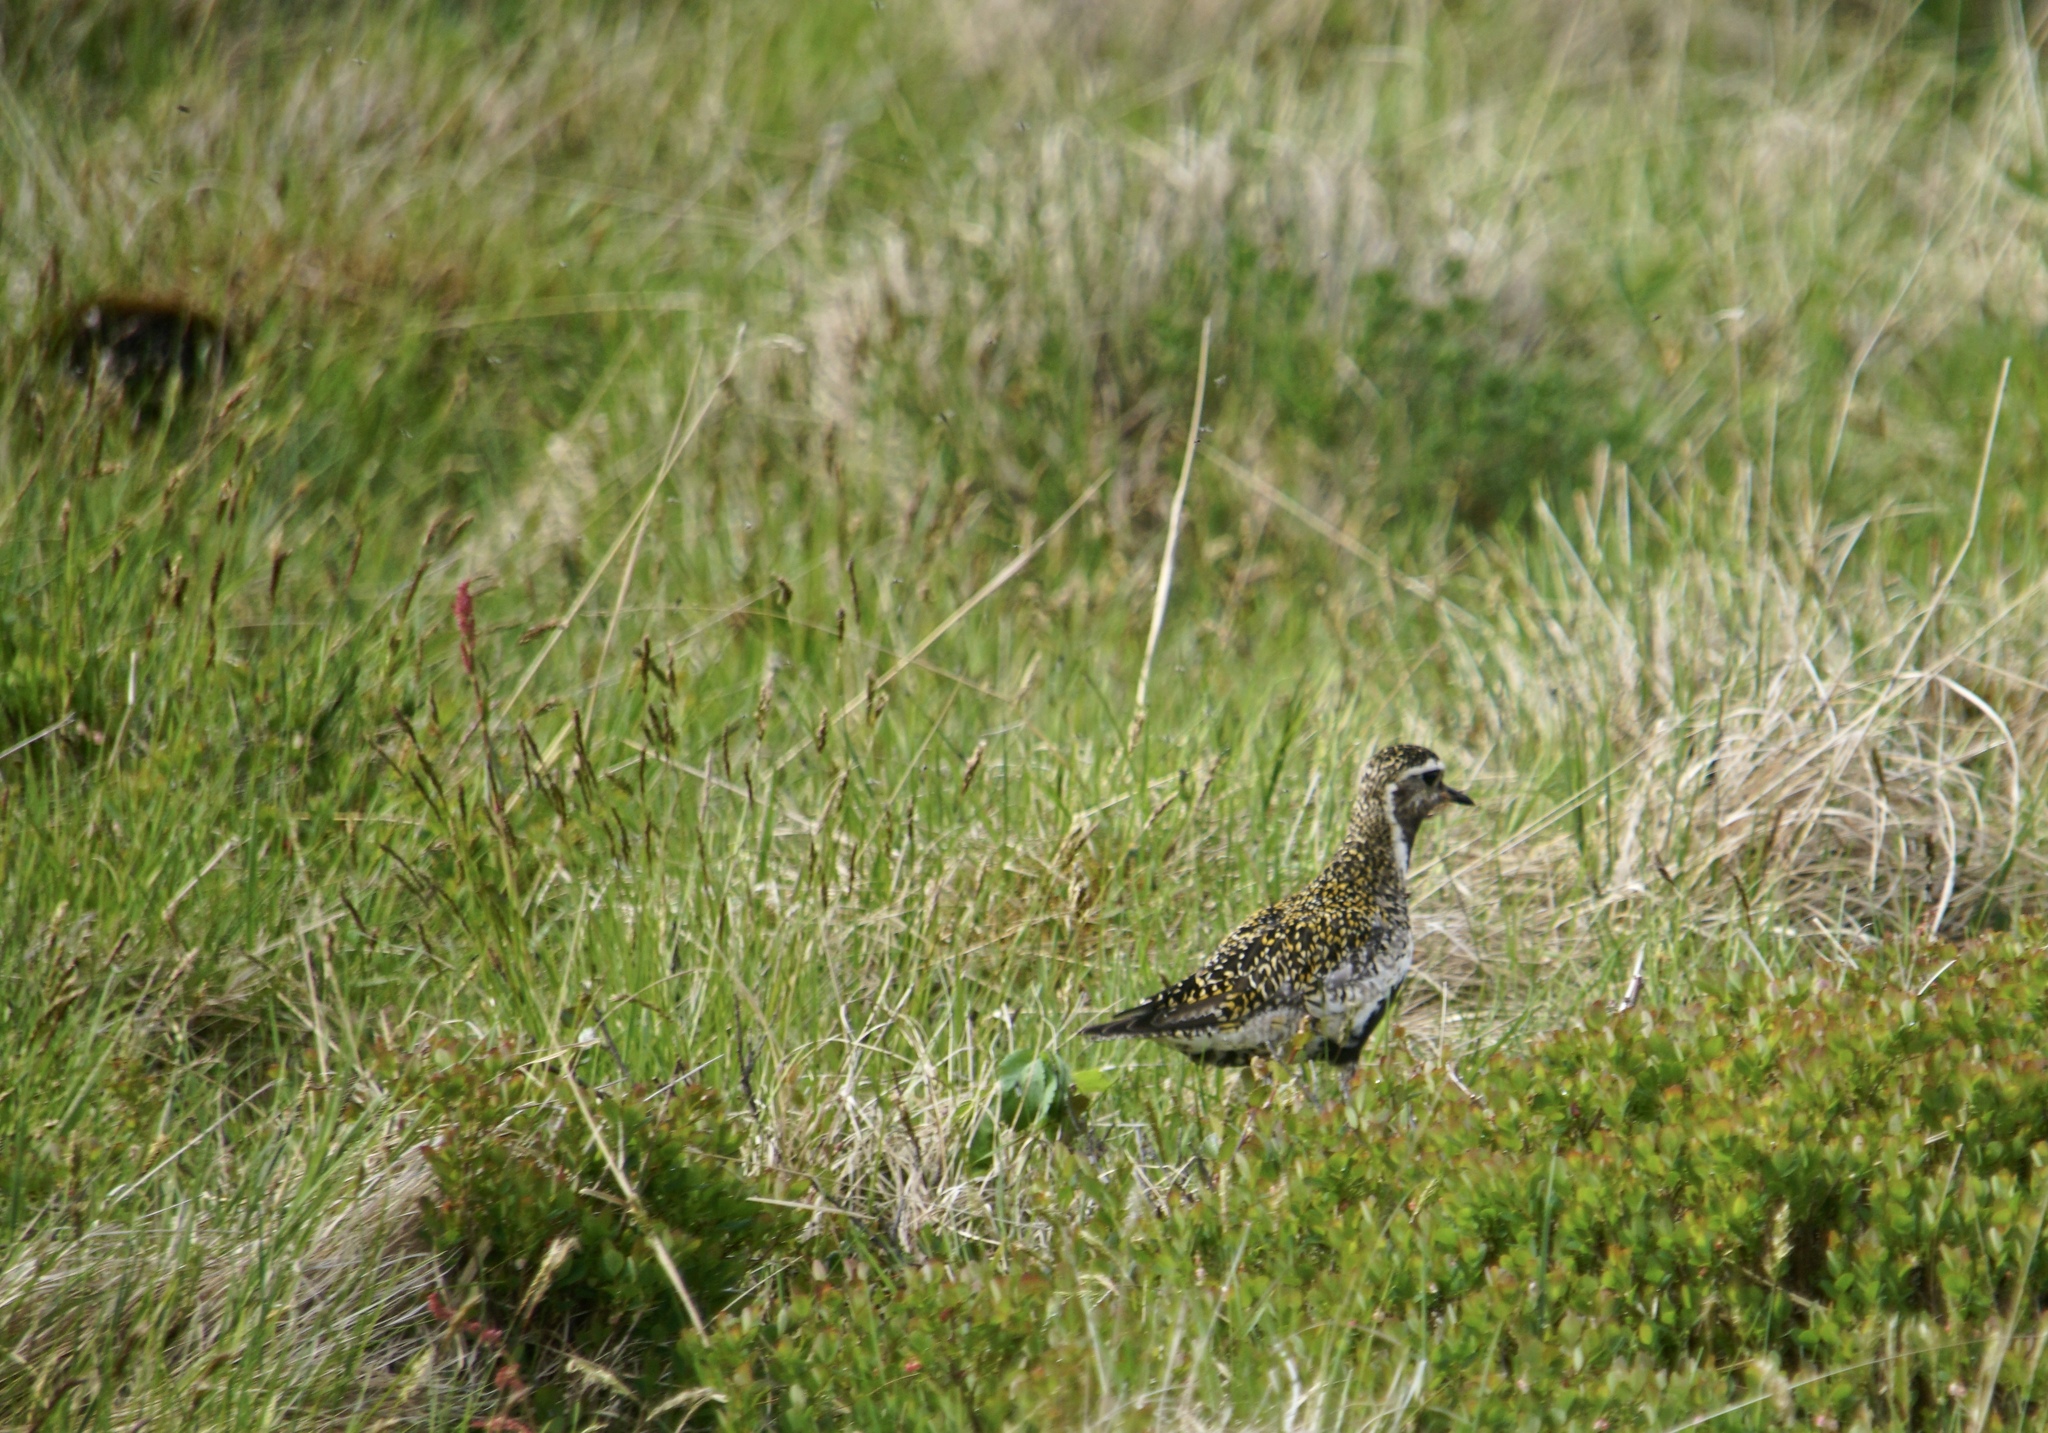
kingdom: Animalia
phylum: Chordata
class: Aves
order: Charadriiformes
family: Charadriidae
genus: Pluvialis
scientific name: Pluvialis apricaria
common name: European golden plover
